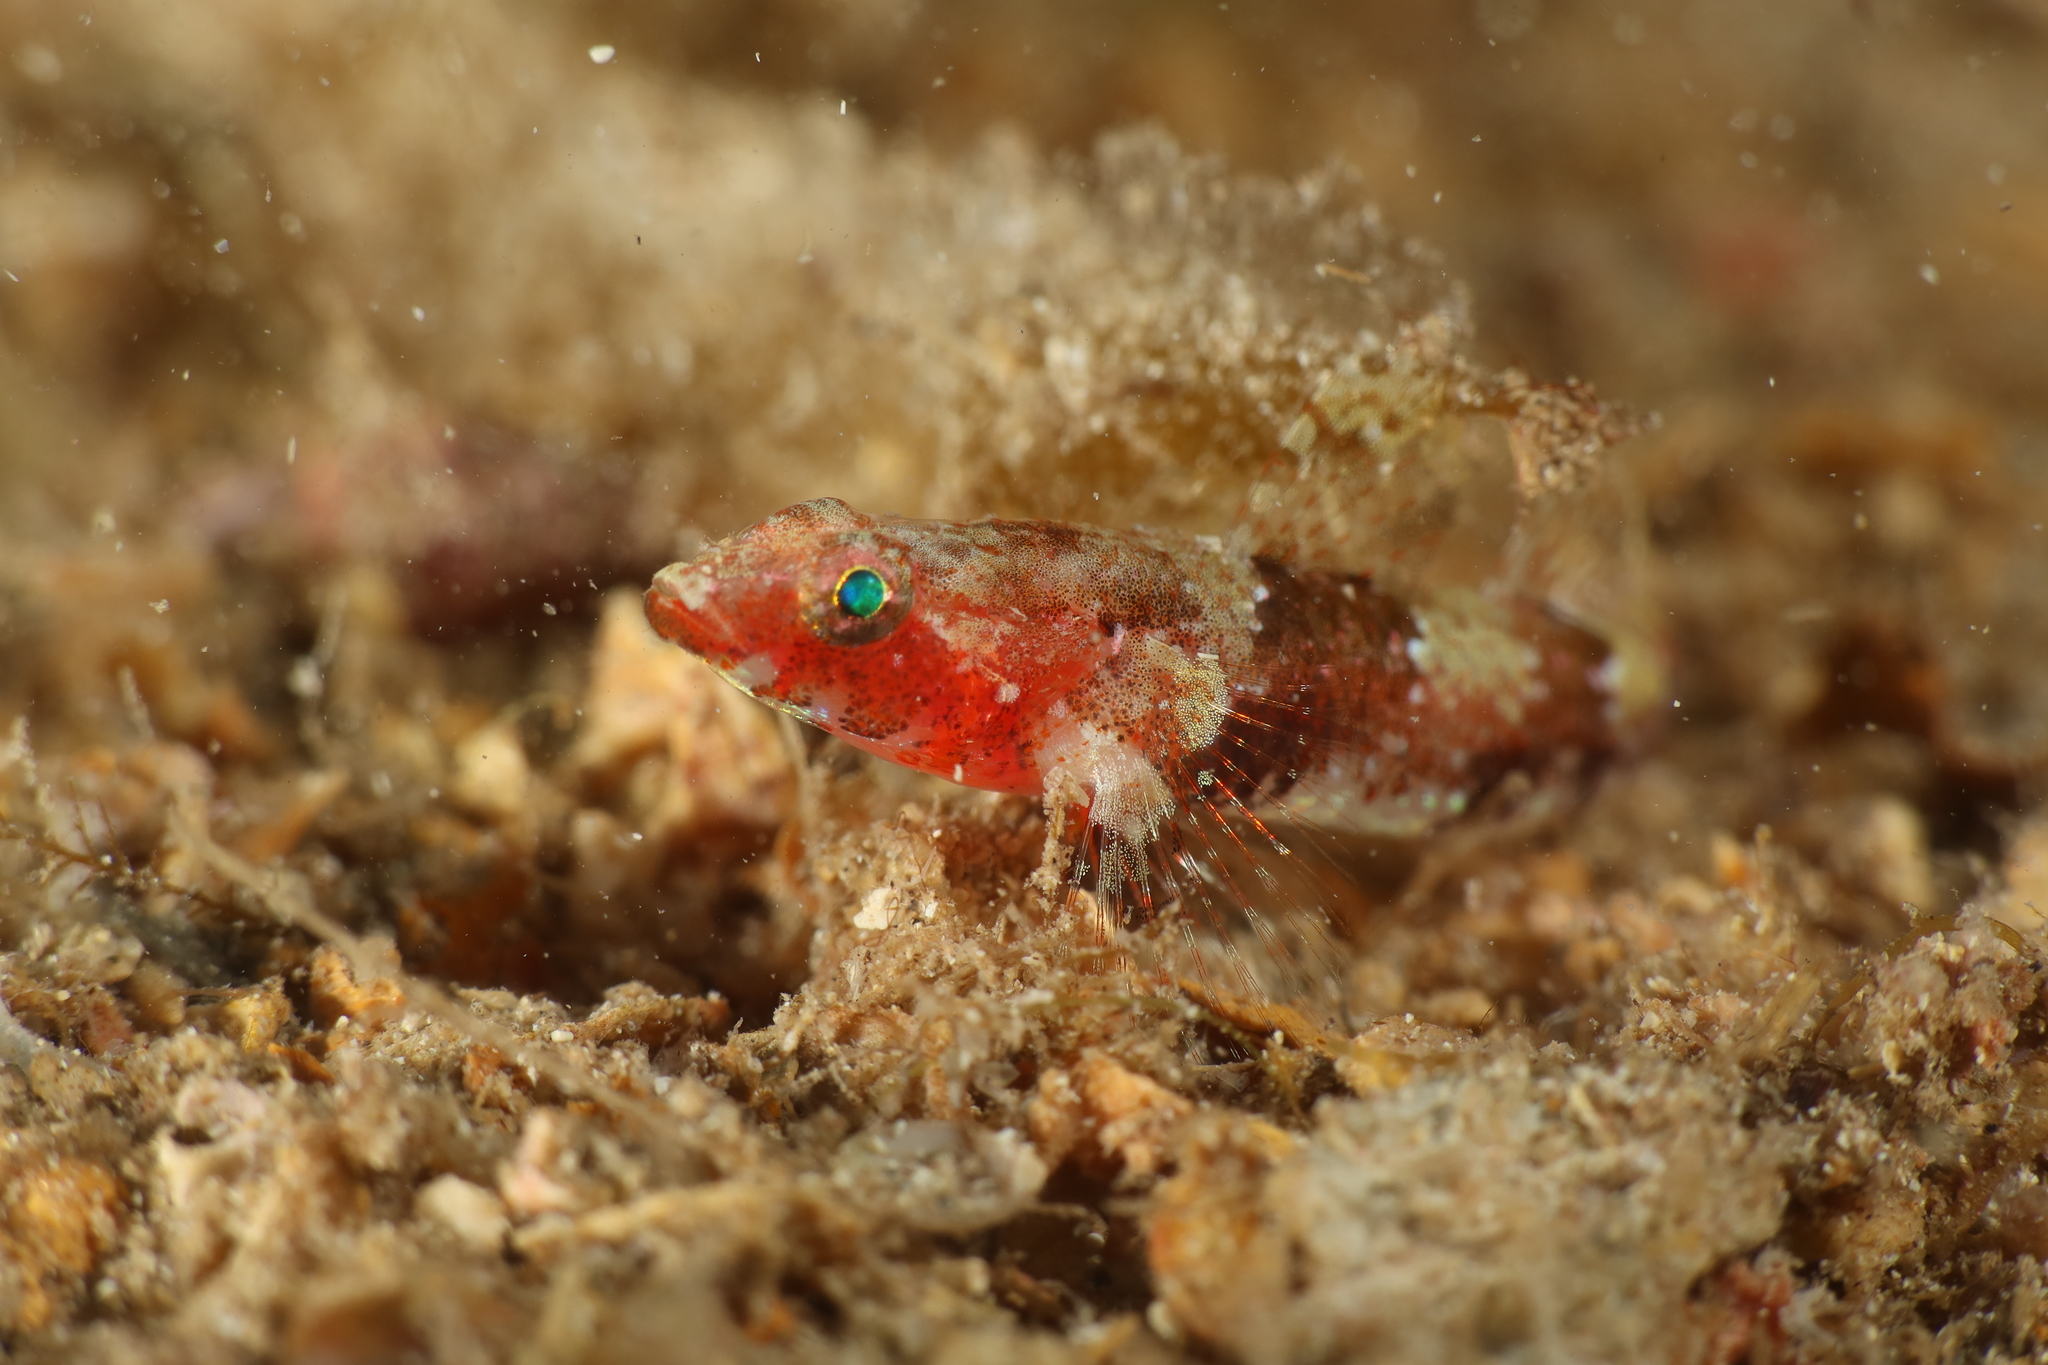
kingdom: Animalia
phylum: Chordata
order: Perciformes
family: Gobiidae
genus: Speleogobius
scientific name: Speleogobius llorisi
